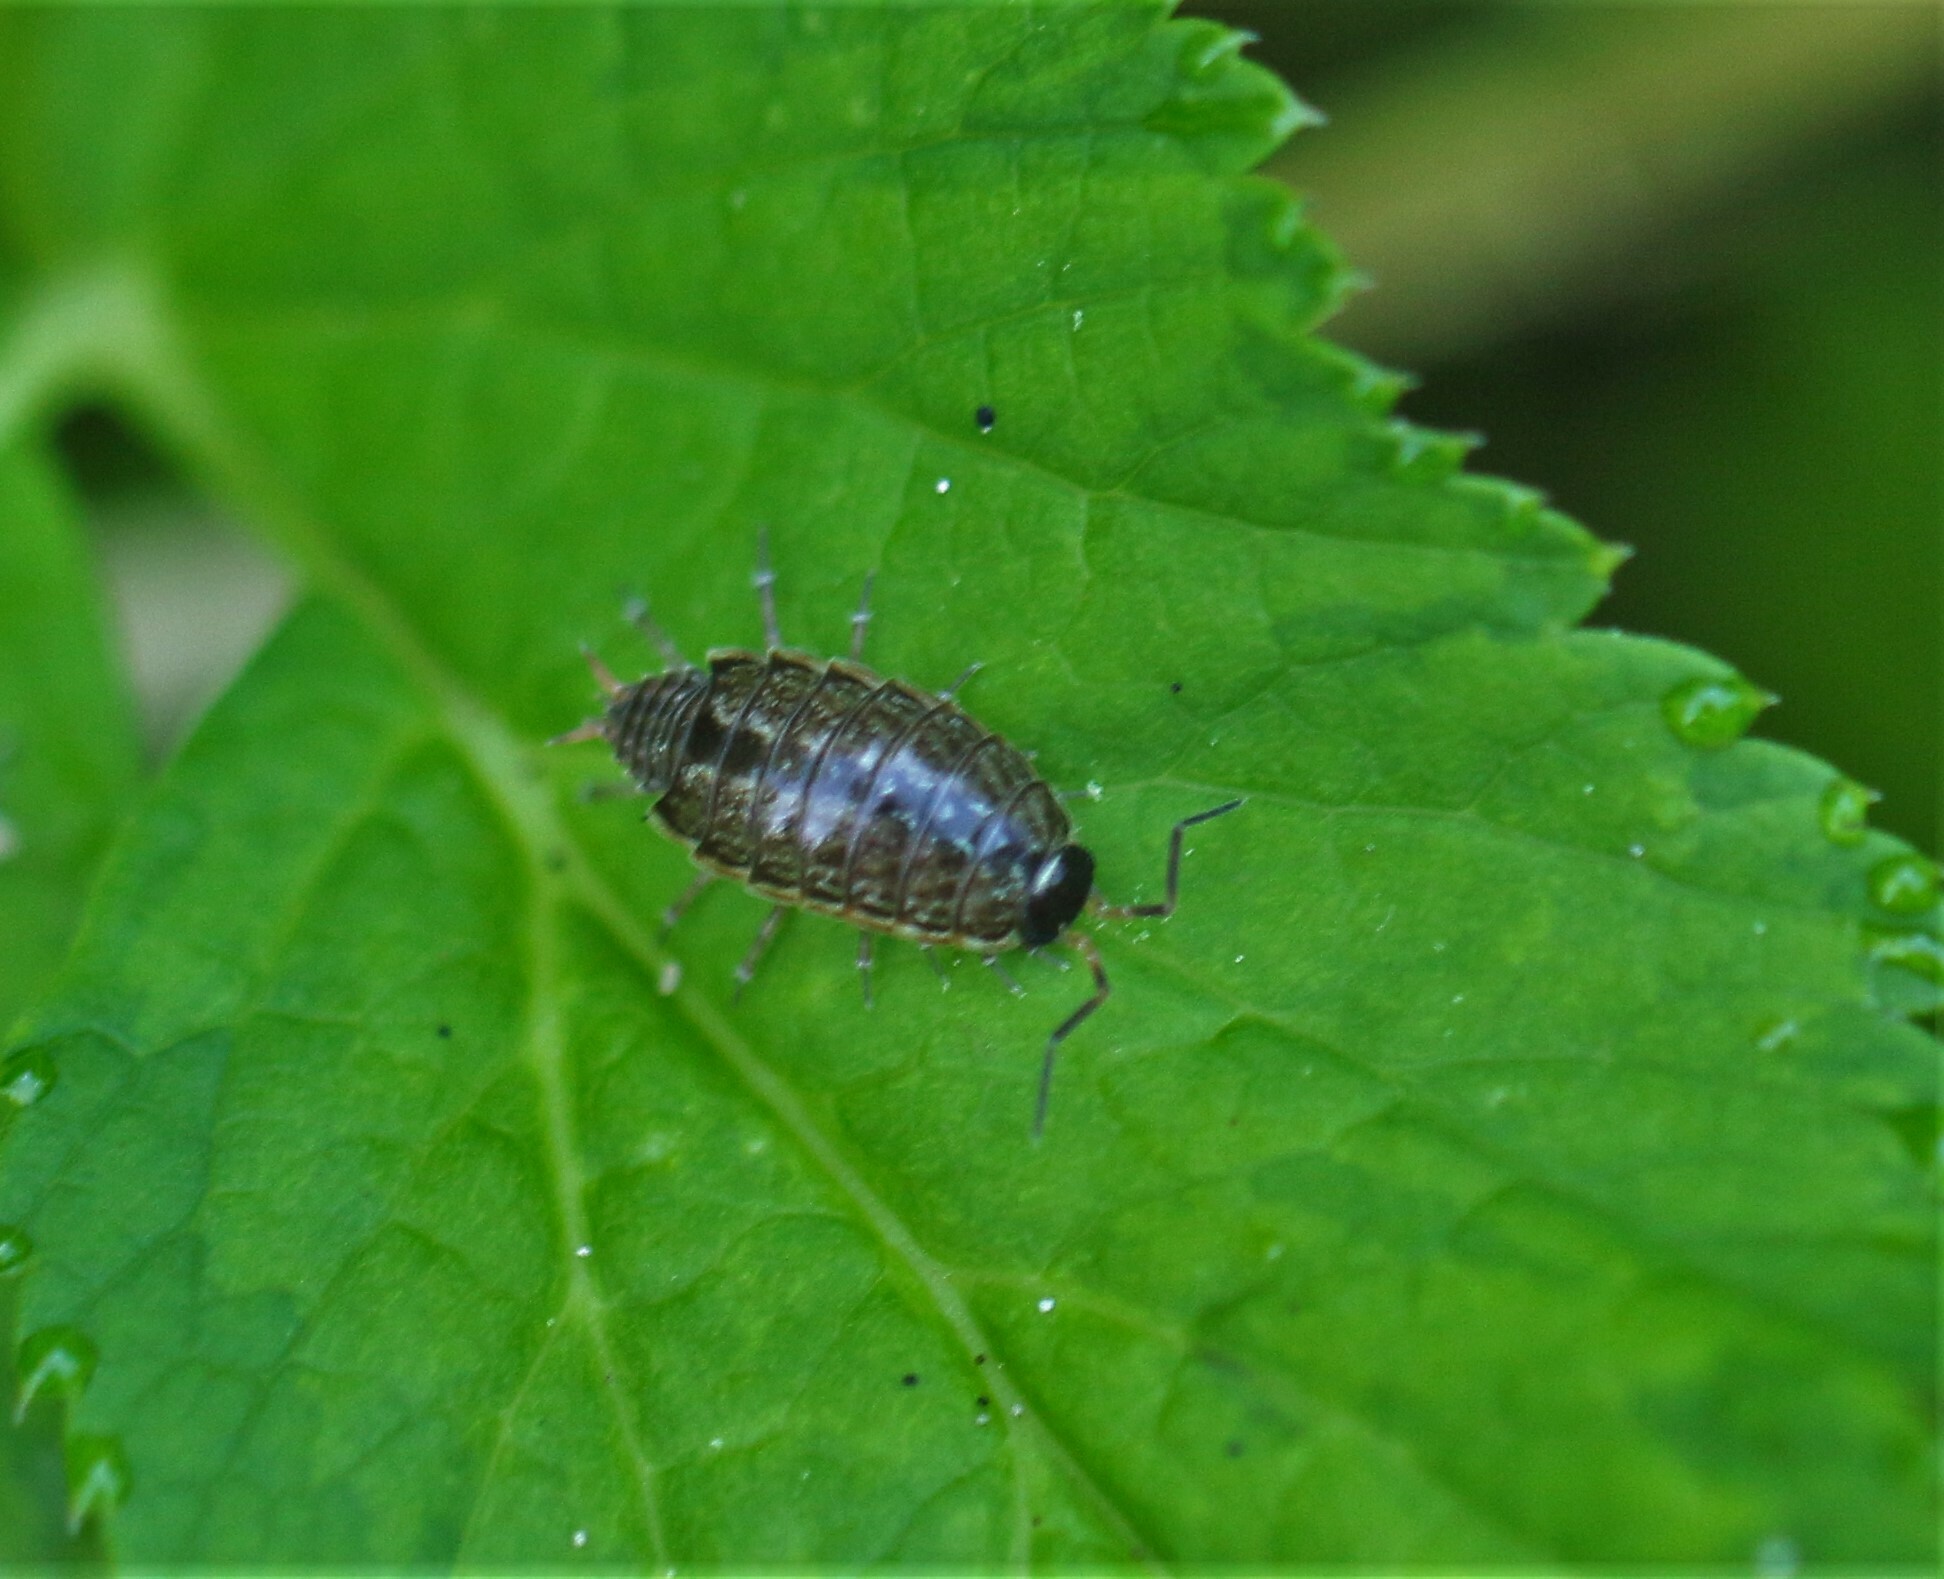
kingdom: Animalia
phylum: Arthropoda
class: Malacostraca
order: Isopoda
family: Philosciidae
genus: Philoscia
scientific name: Philoscia muscorum
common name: Common striped woodlouse
